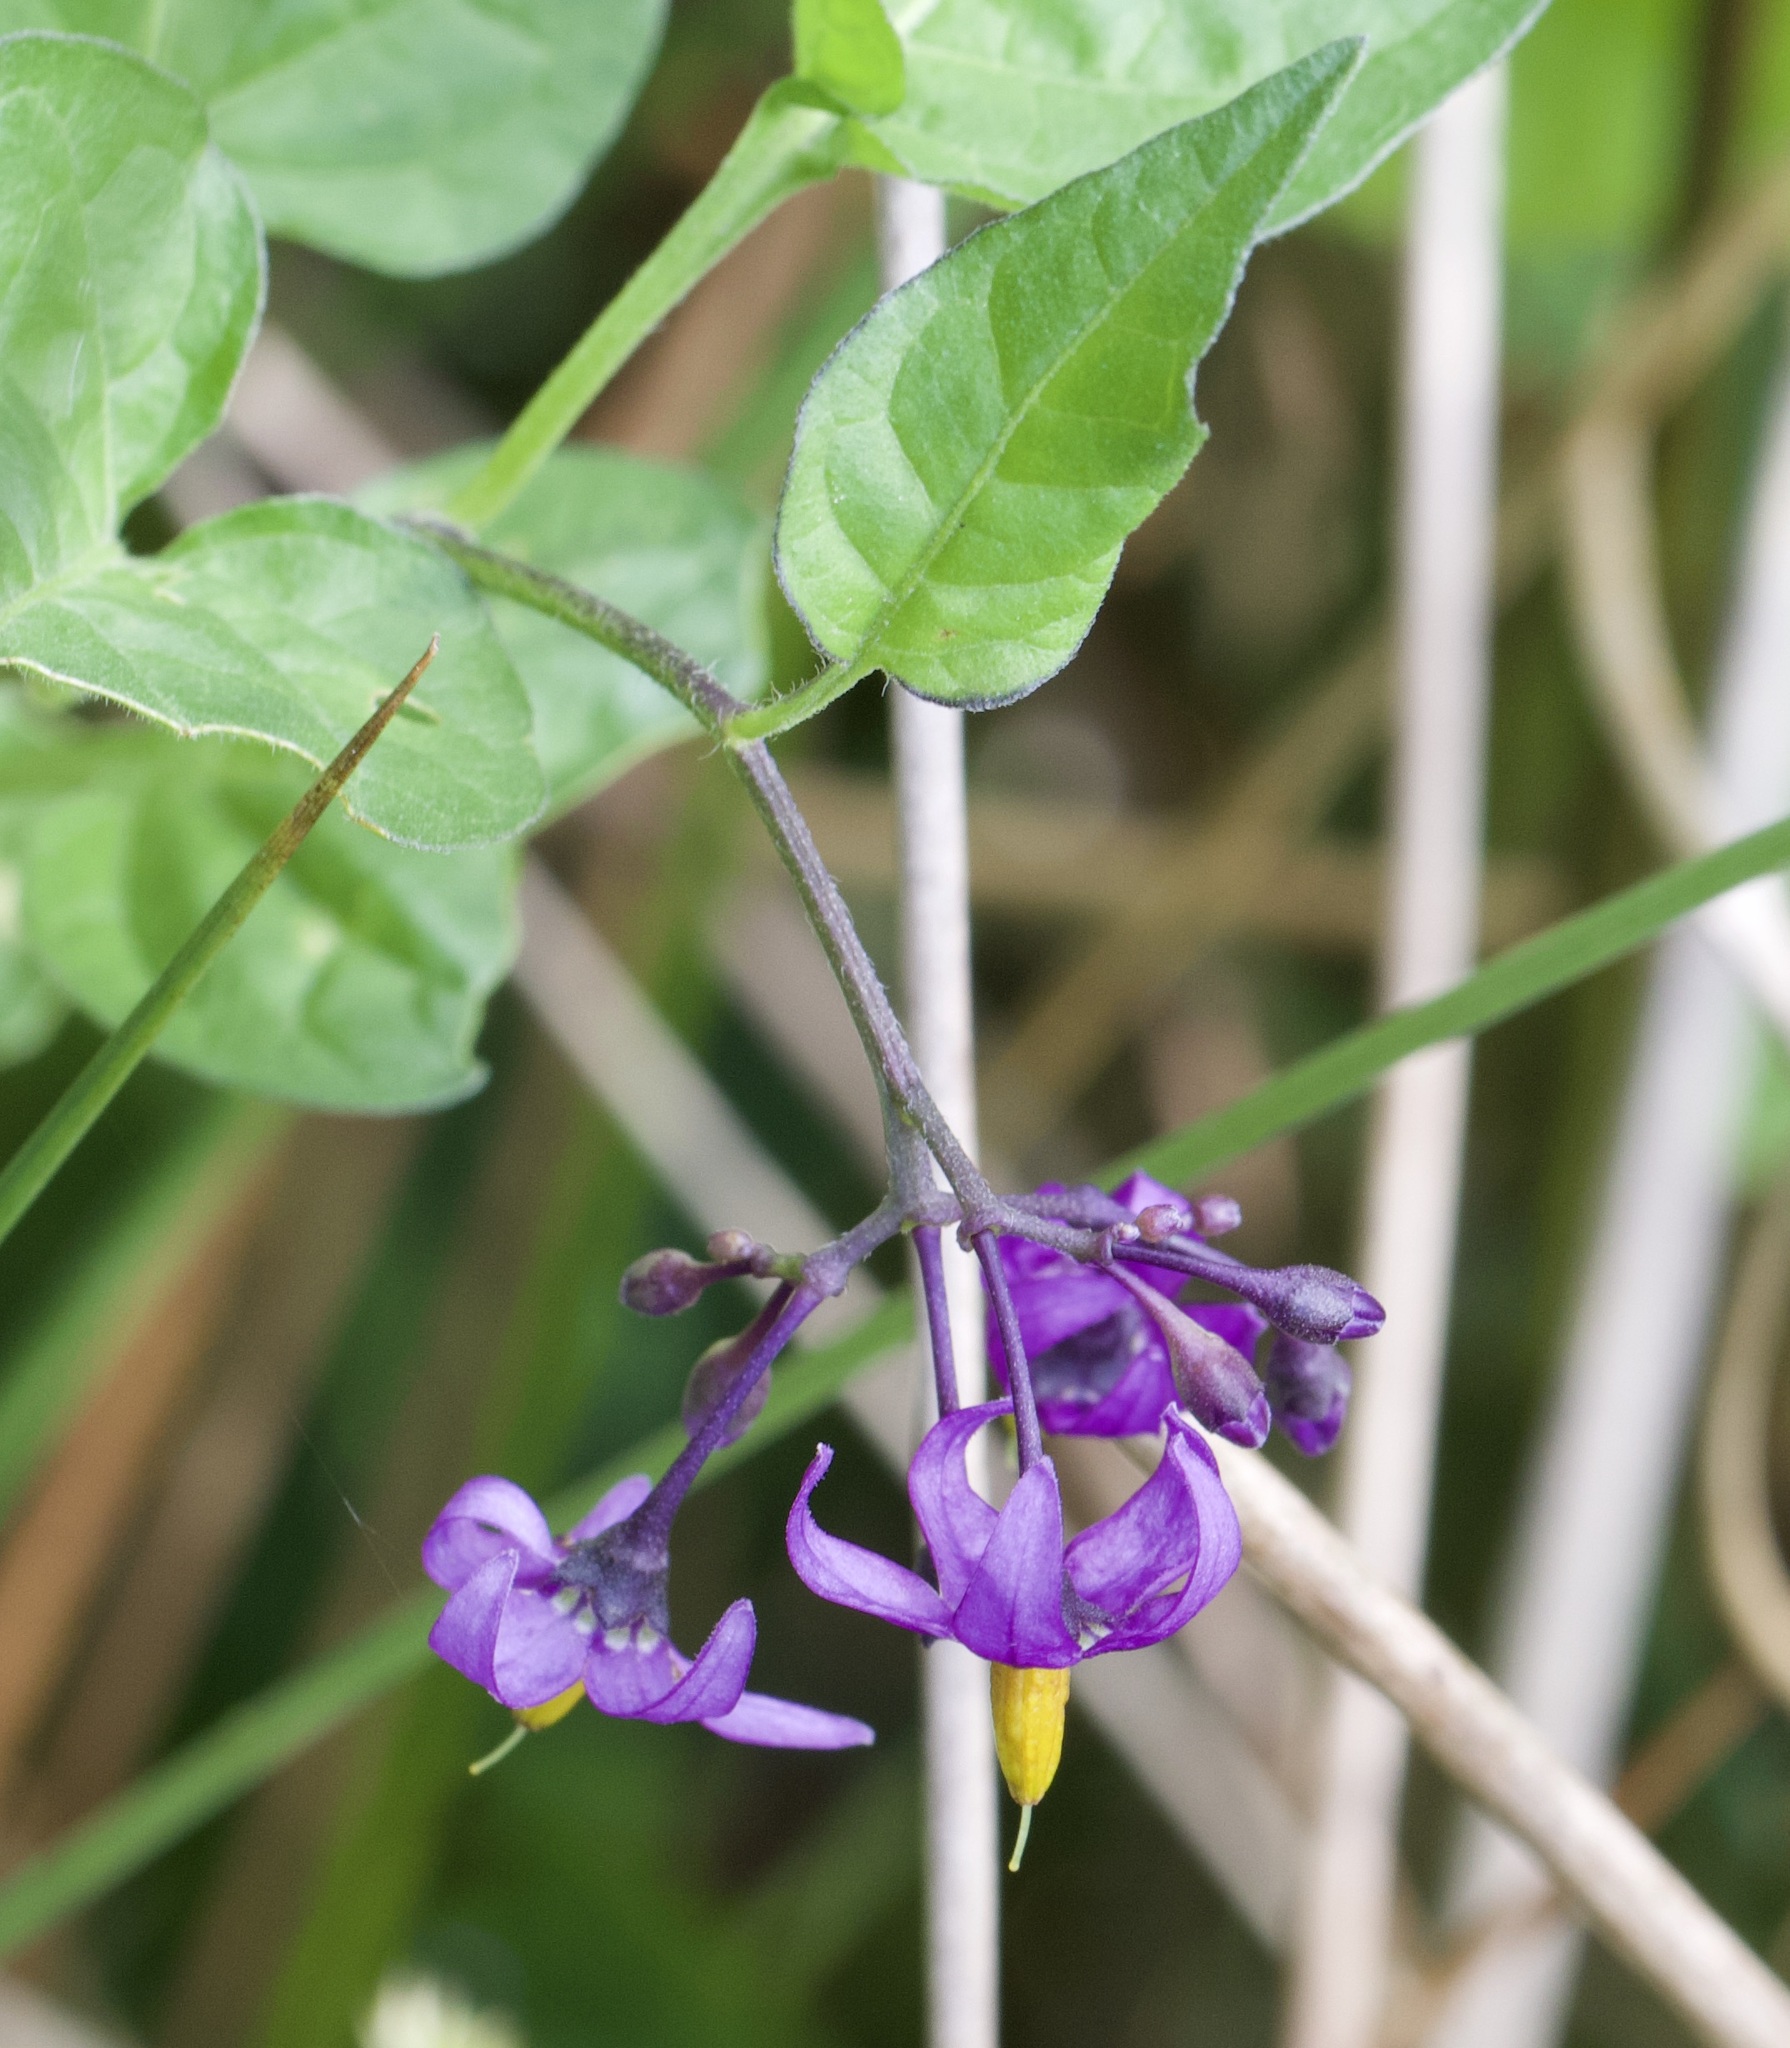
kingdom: Plantae
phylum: Tracheophyta
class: Magnoliopsida
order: Solanales
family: Solanaceae
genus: Solanum
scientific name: Solanum dulcamara
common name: Climbing nightshade
